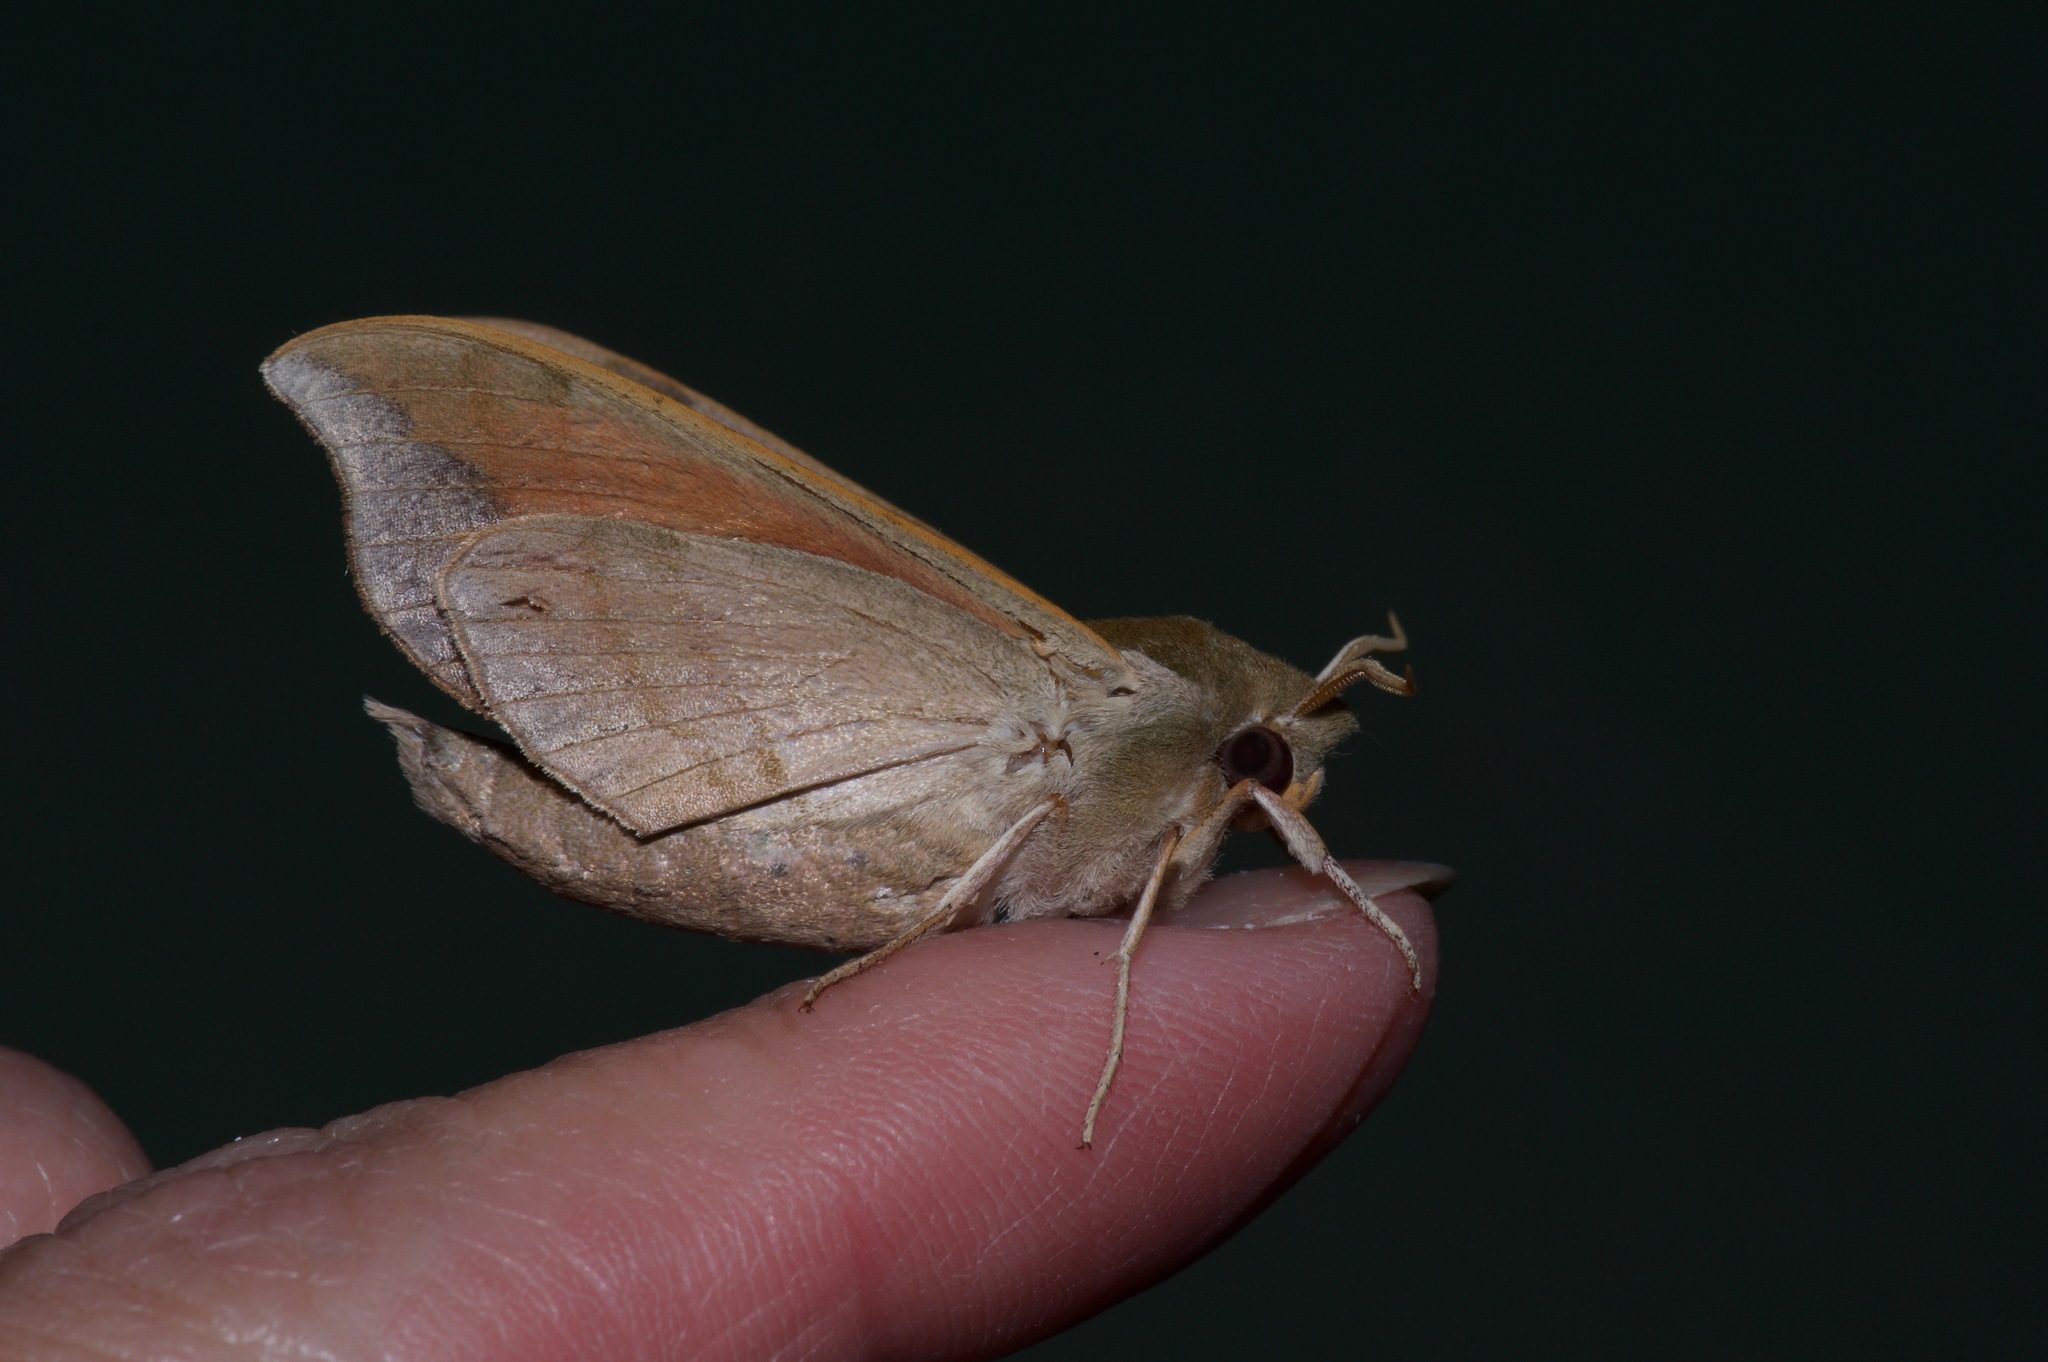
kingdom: Animalia
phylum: Arthropoda
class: Insecta
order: Lepidoptera
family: Sphingidae
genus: Darapsa
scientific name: Darapsa myron
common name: Hog sphinx
